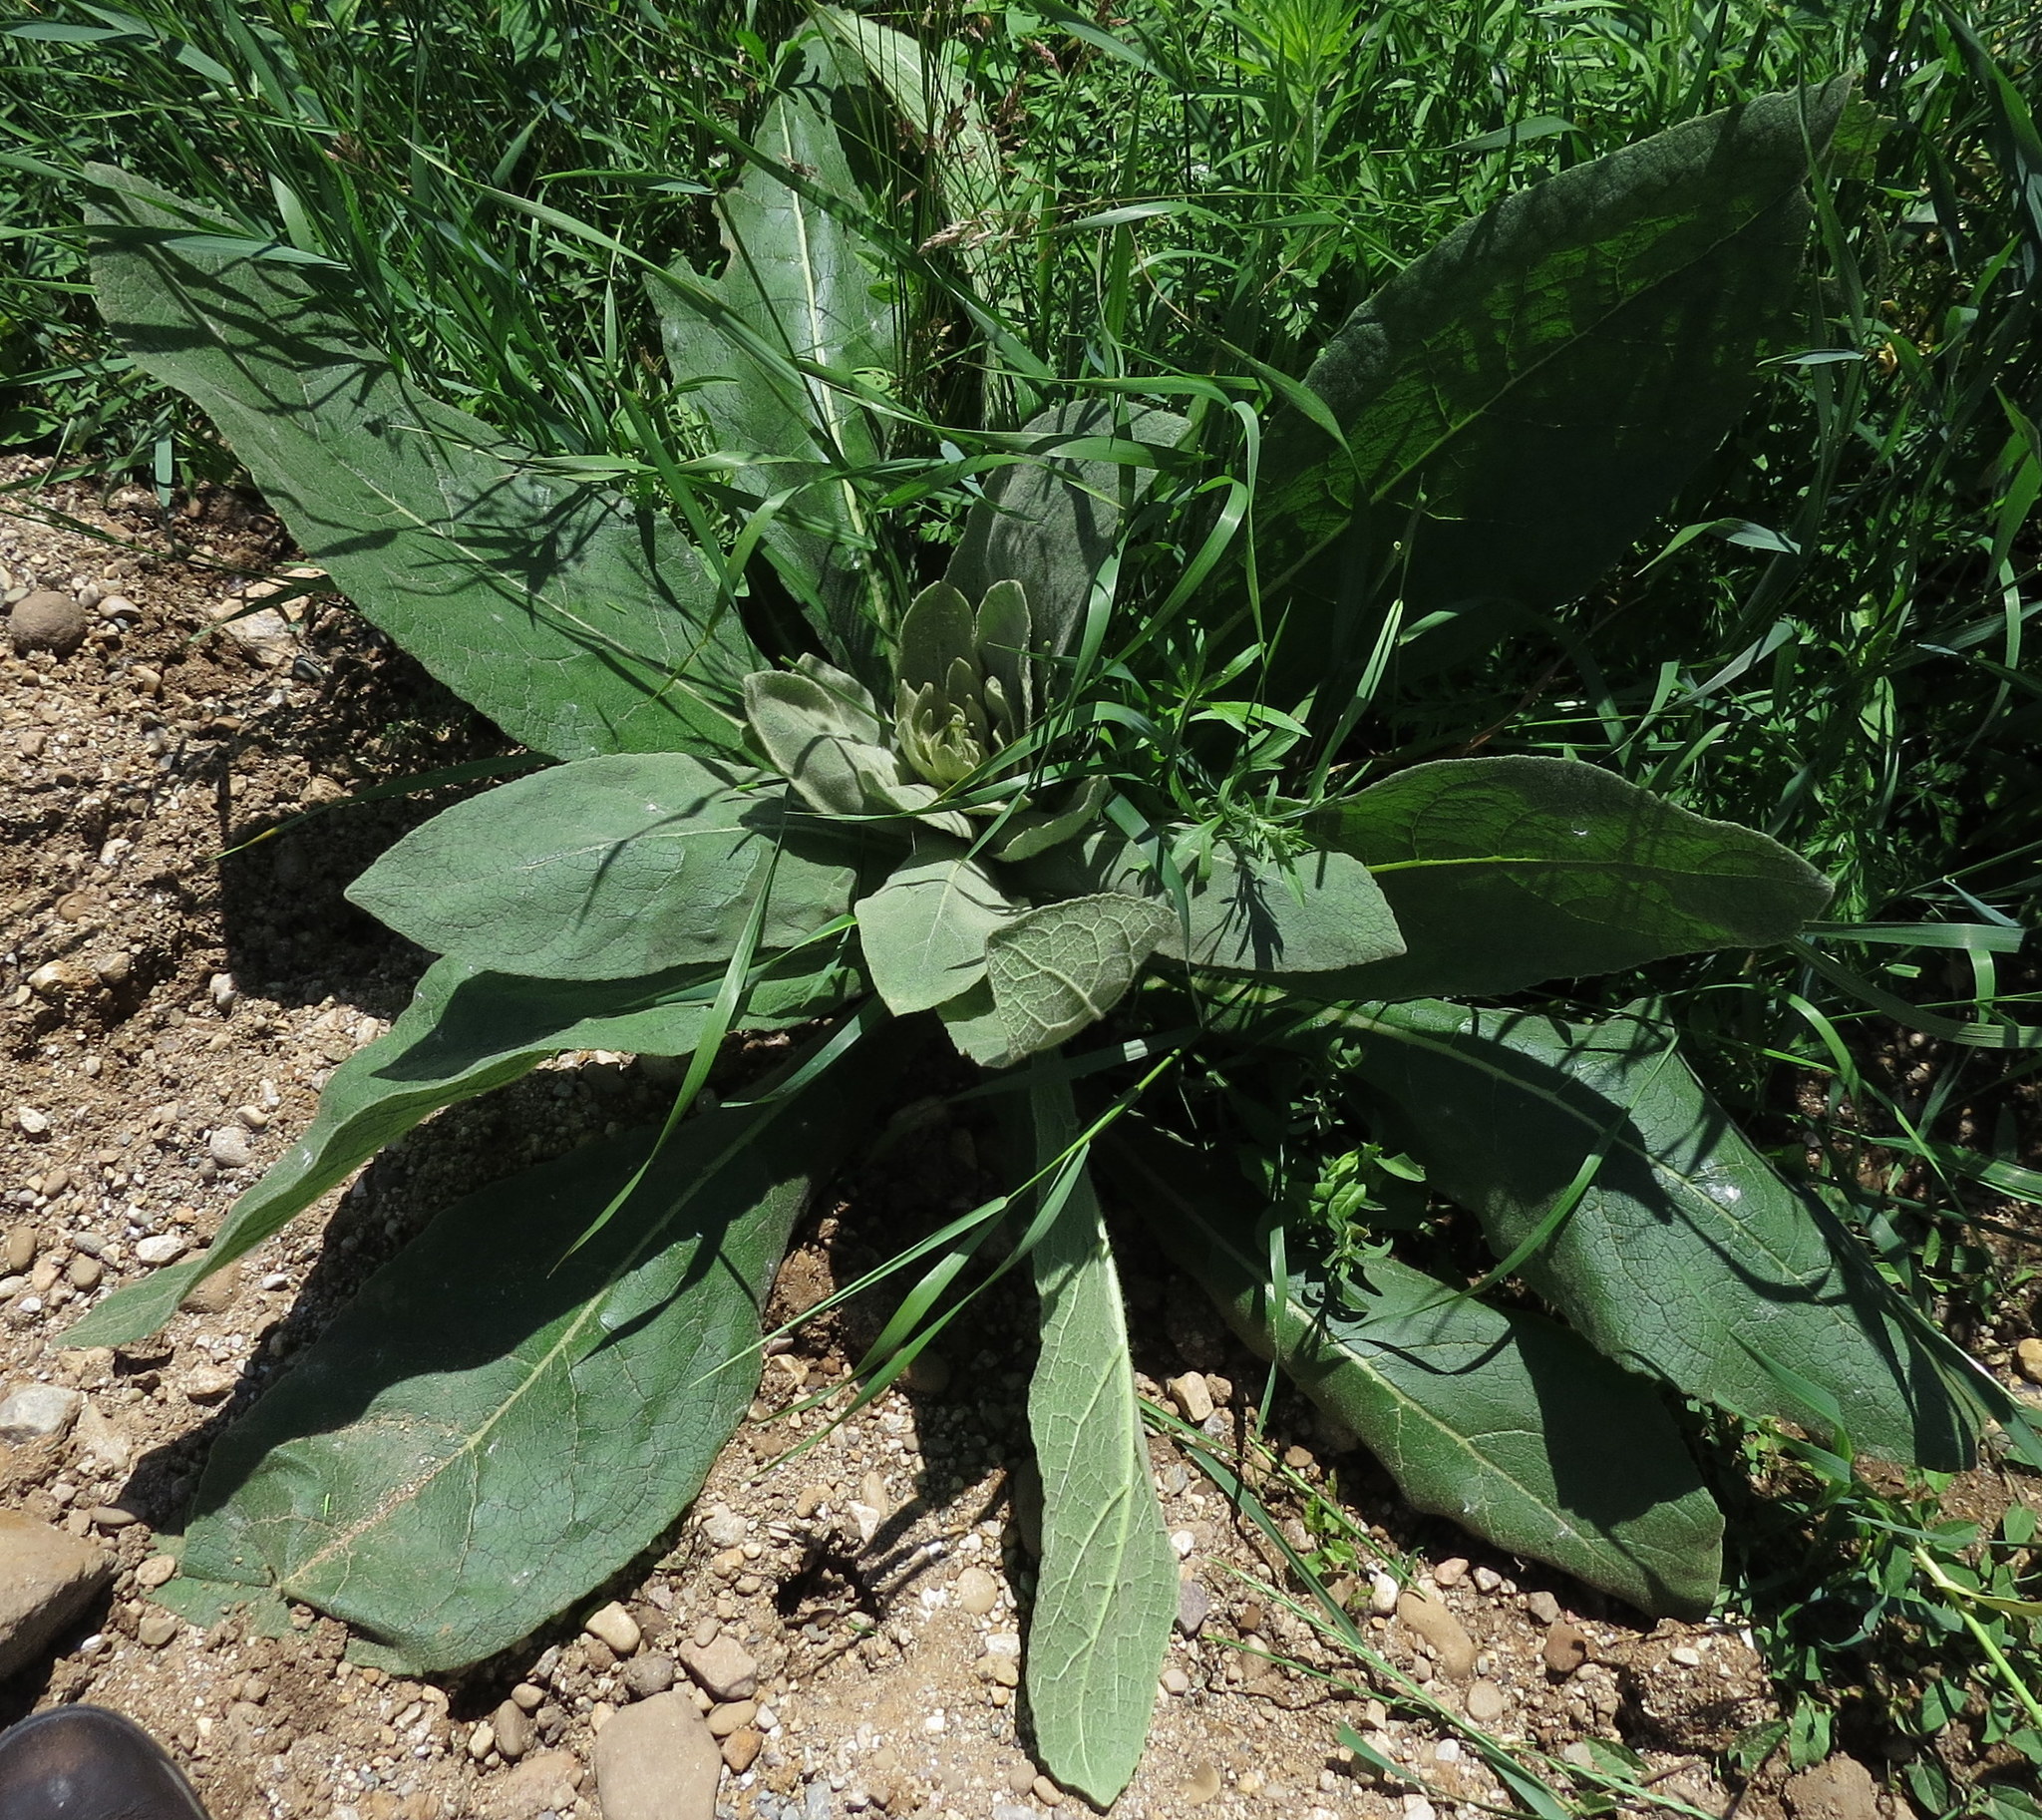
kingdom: Plantae
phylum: Tracheophyta
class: Magnoliopsida
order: Lamiales
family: Scrophulariaceae
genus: Verbascum
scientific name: Verbascum thapsus
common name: Common mullein
